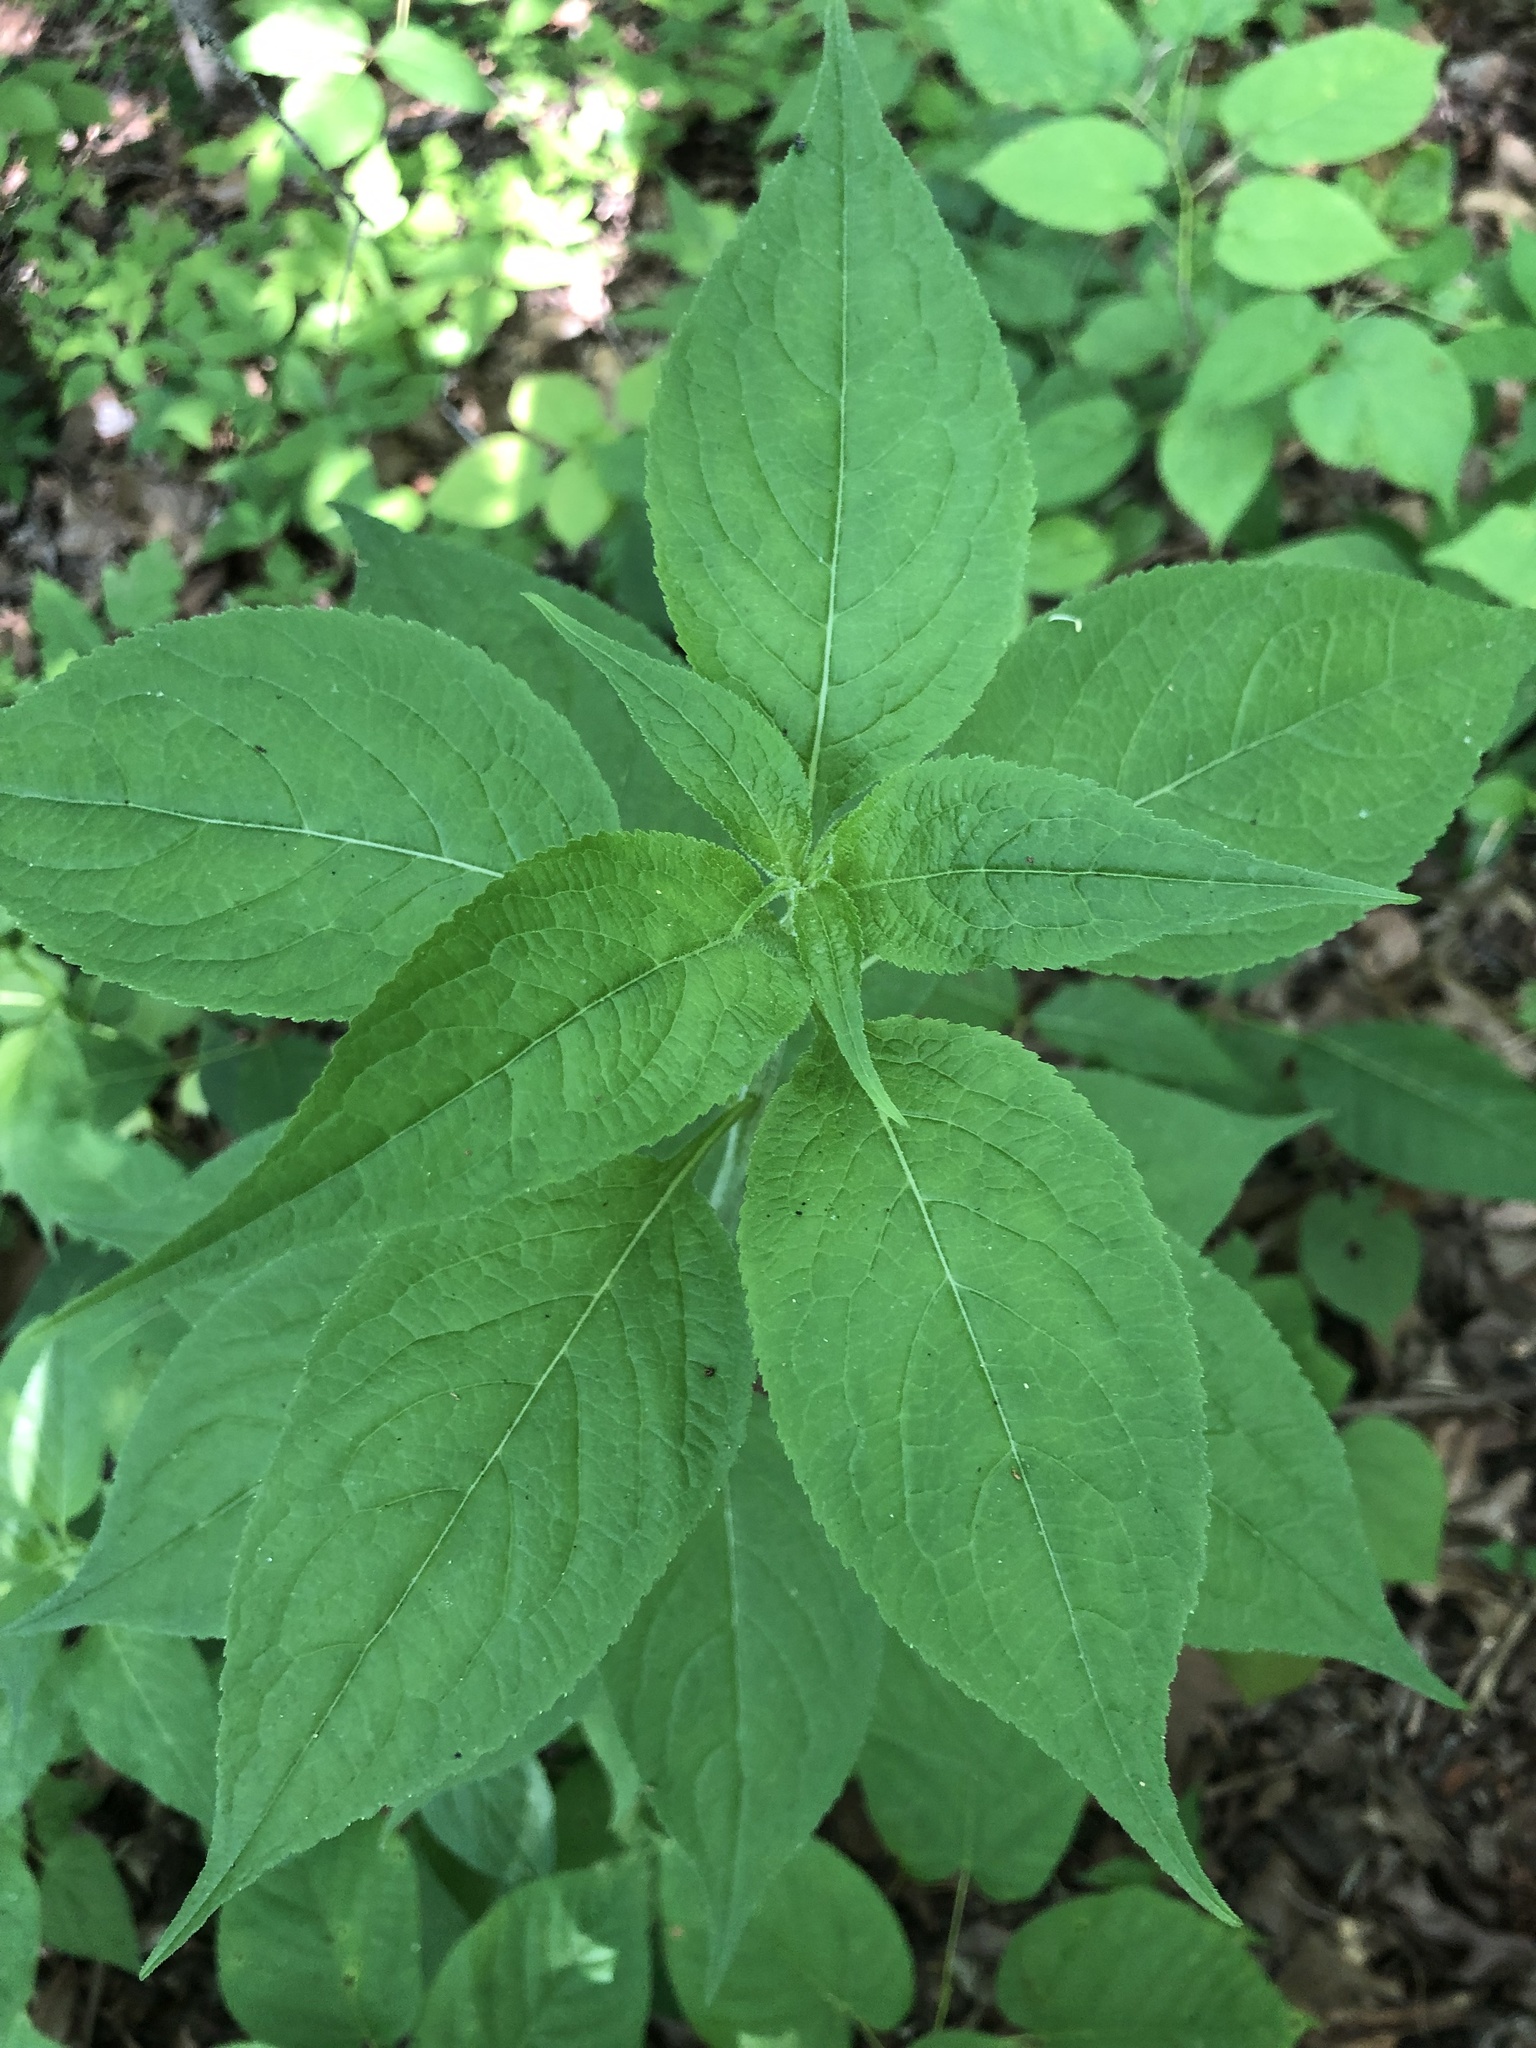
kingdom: Plantae
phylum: Tracheophyta
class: Magnoliopsida
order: Asterales
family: Campanulaceae
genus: Campanulastrum
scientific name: Campanulastrum americanum
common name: American bellflower
